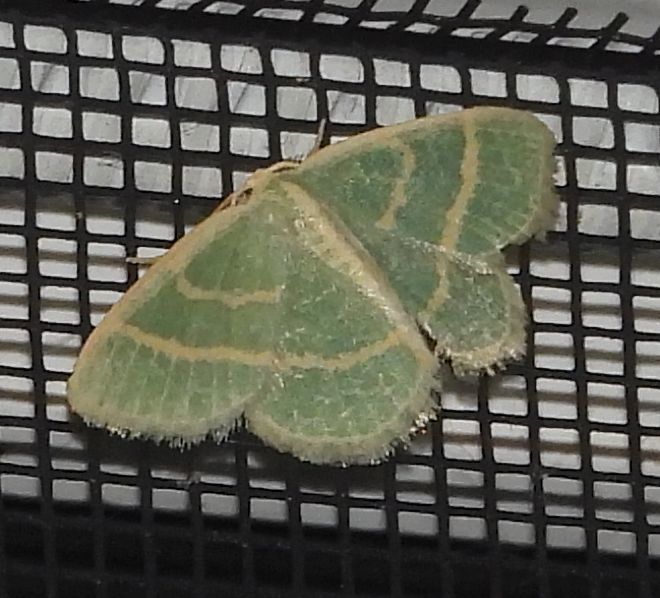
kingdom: Animalia
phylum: Arthropoda
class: Insecta
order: Lepidoptera
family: Geometridae
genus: Chlorochlamys
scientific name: Chlorochlamys chloroleucaria
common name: Blackberry looper
